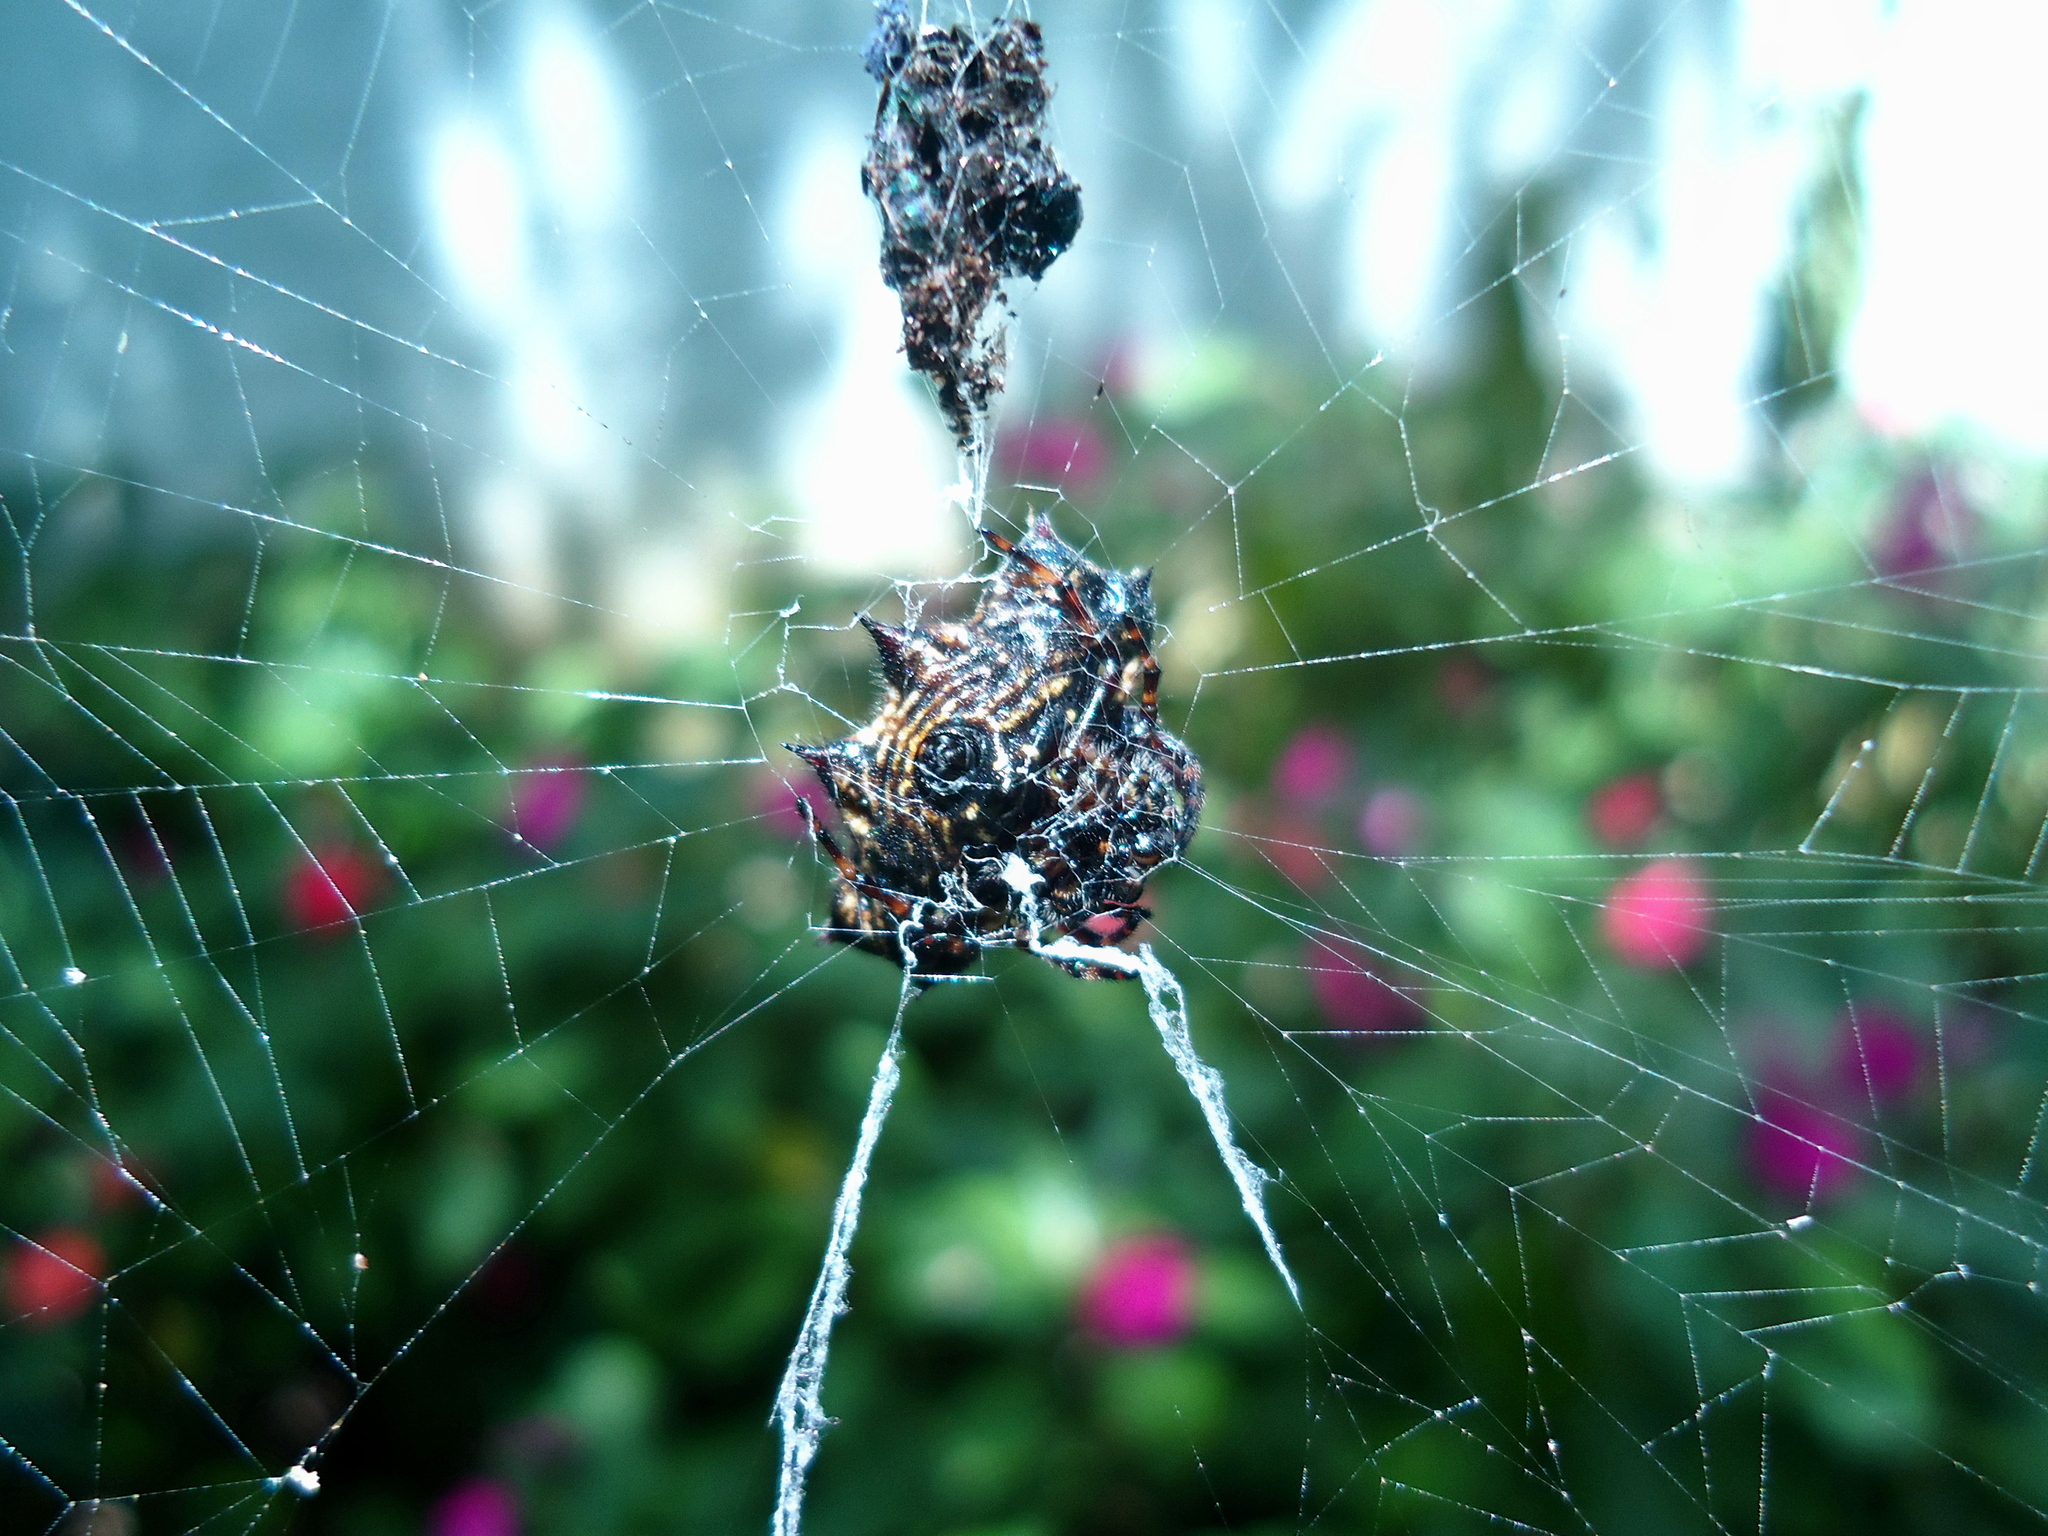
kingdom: Animalia
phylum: Arthropoda
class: Arachnida
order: Araneae
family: Araneidae
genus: Gasteracantha
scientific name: Gasteracantha cancriformis
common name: Orb weavers
